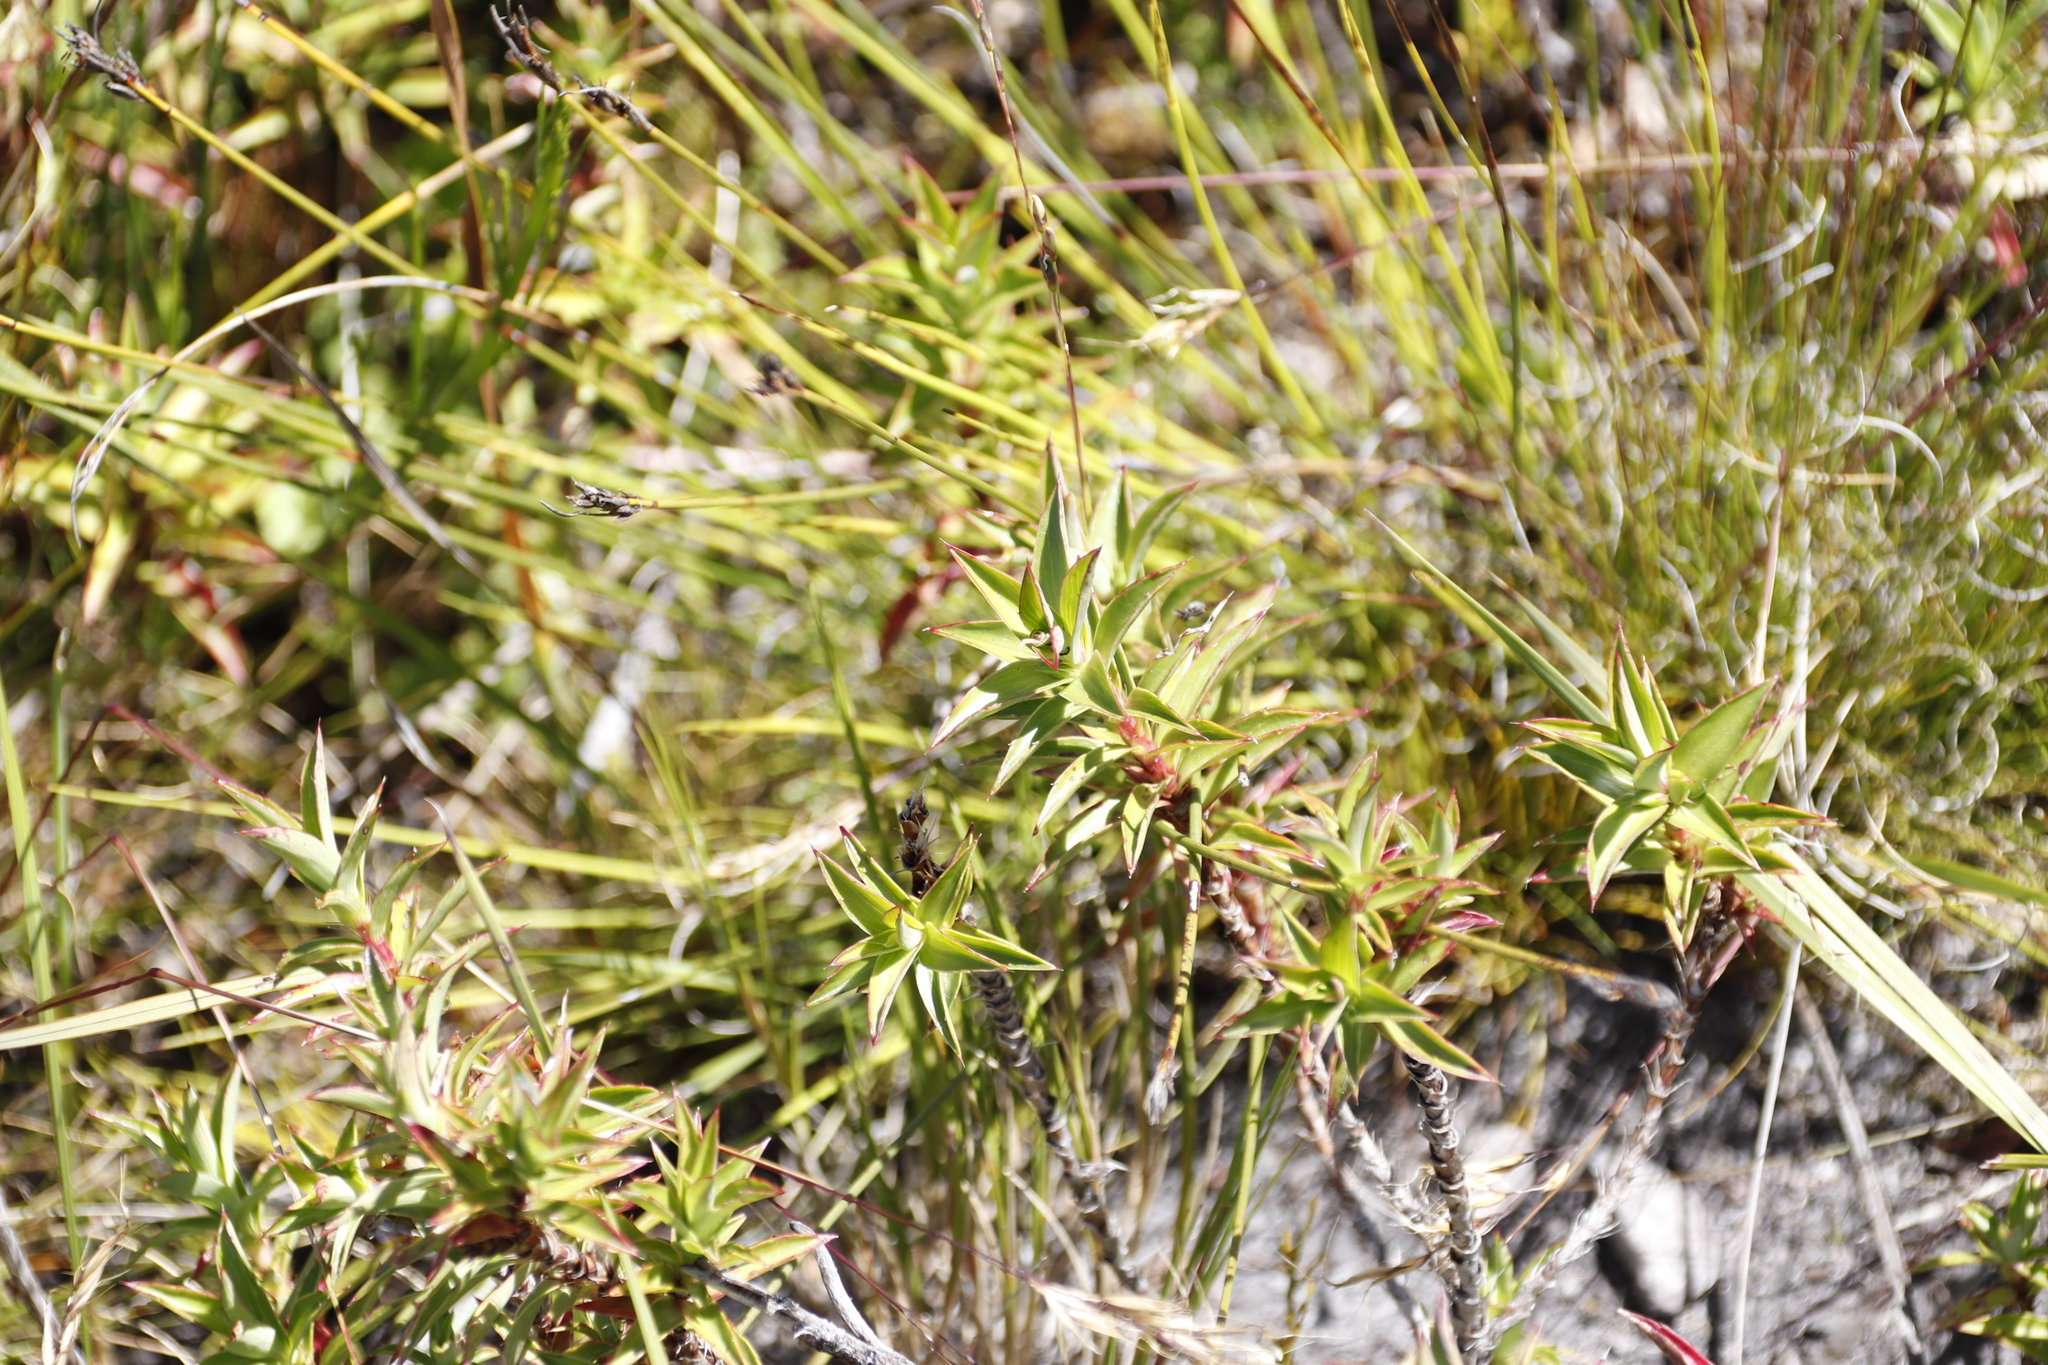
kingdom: Plantae
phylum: Tracheophyta
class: Magnoliopsida
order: Rosales
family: Rosaceae
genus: Cliffortia
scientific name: Cliffortia dregeana
